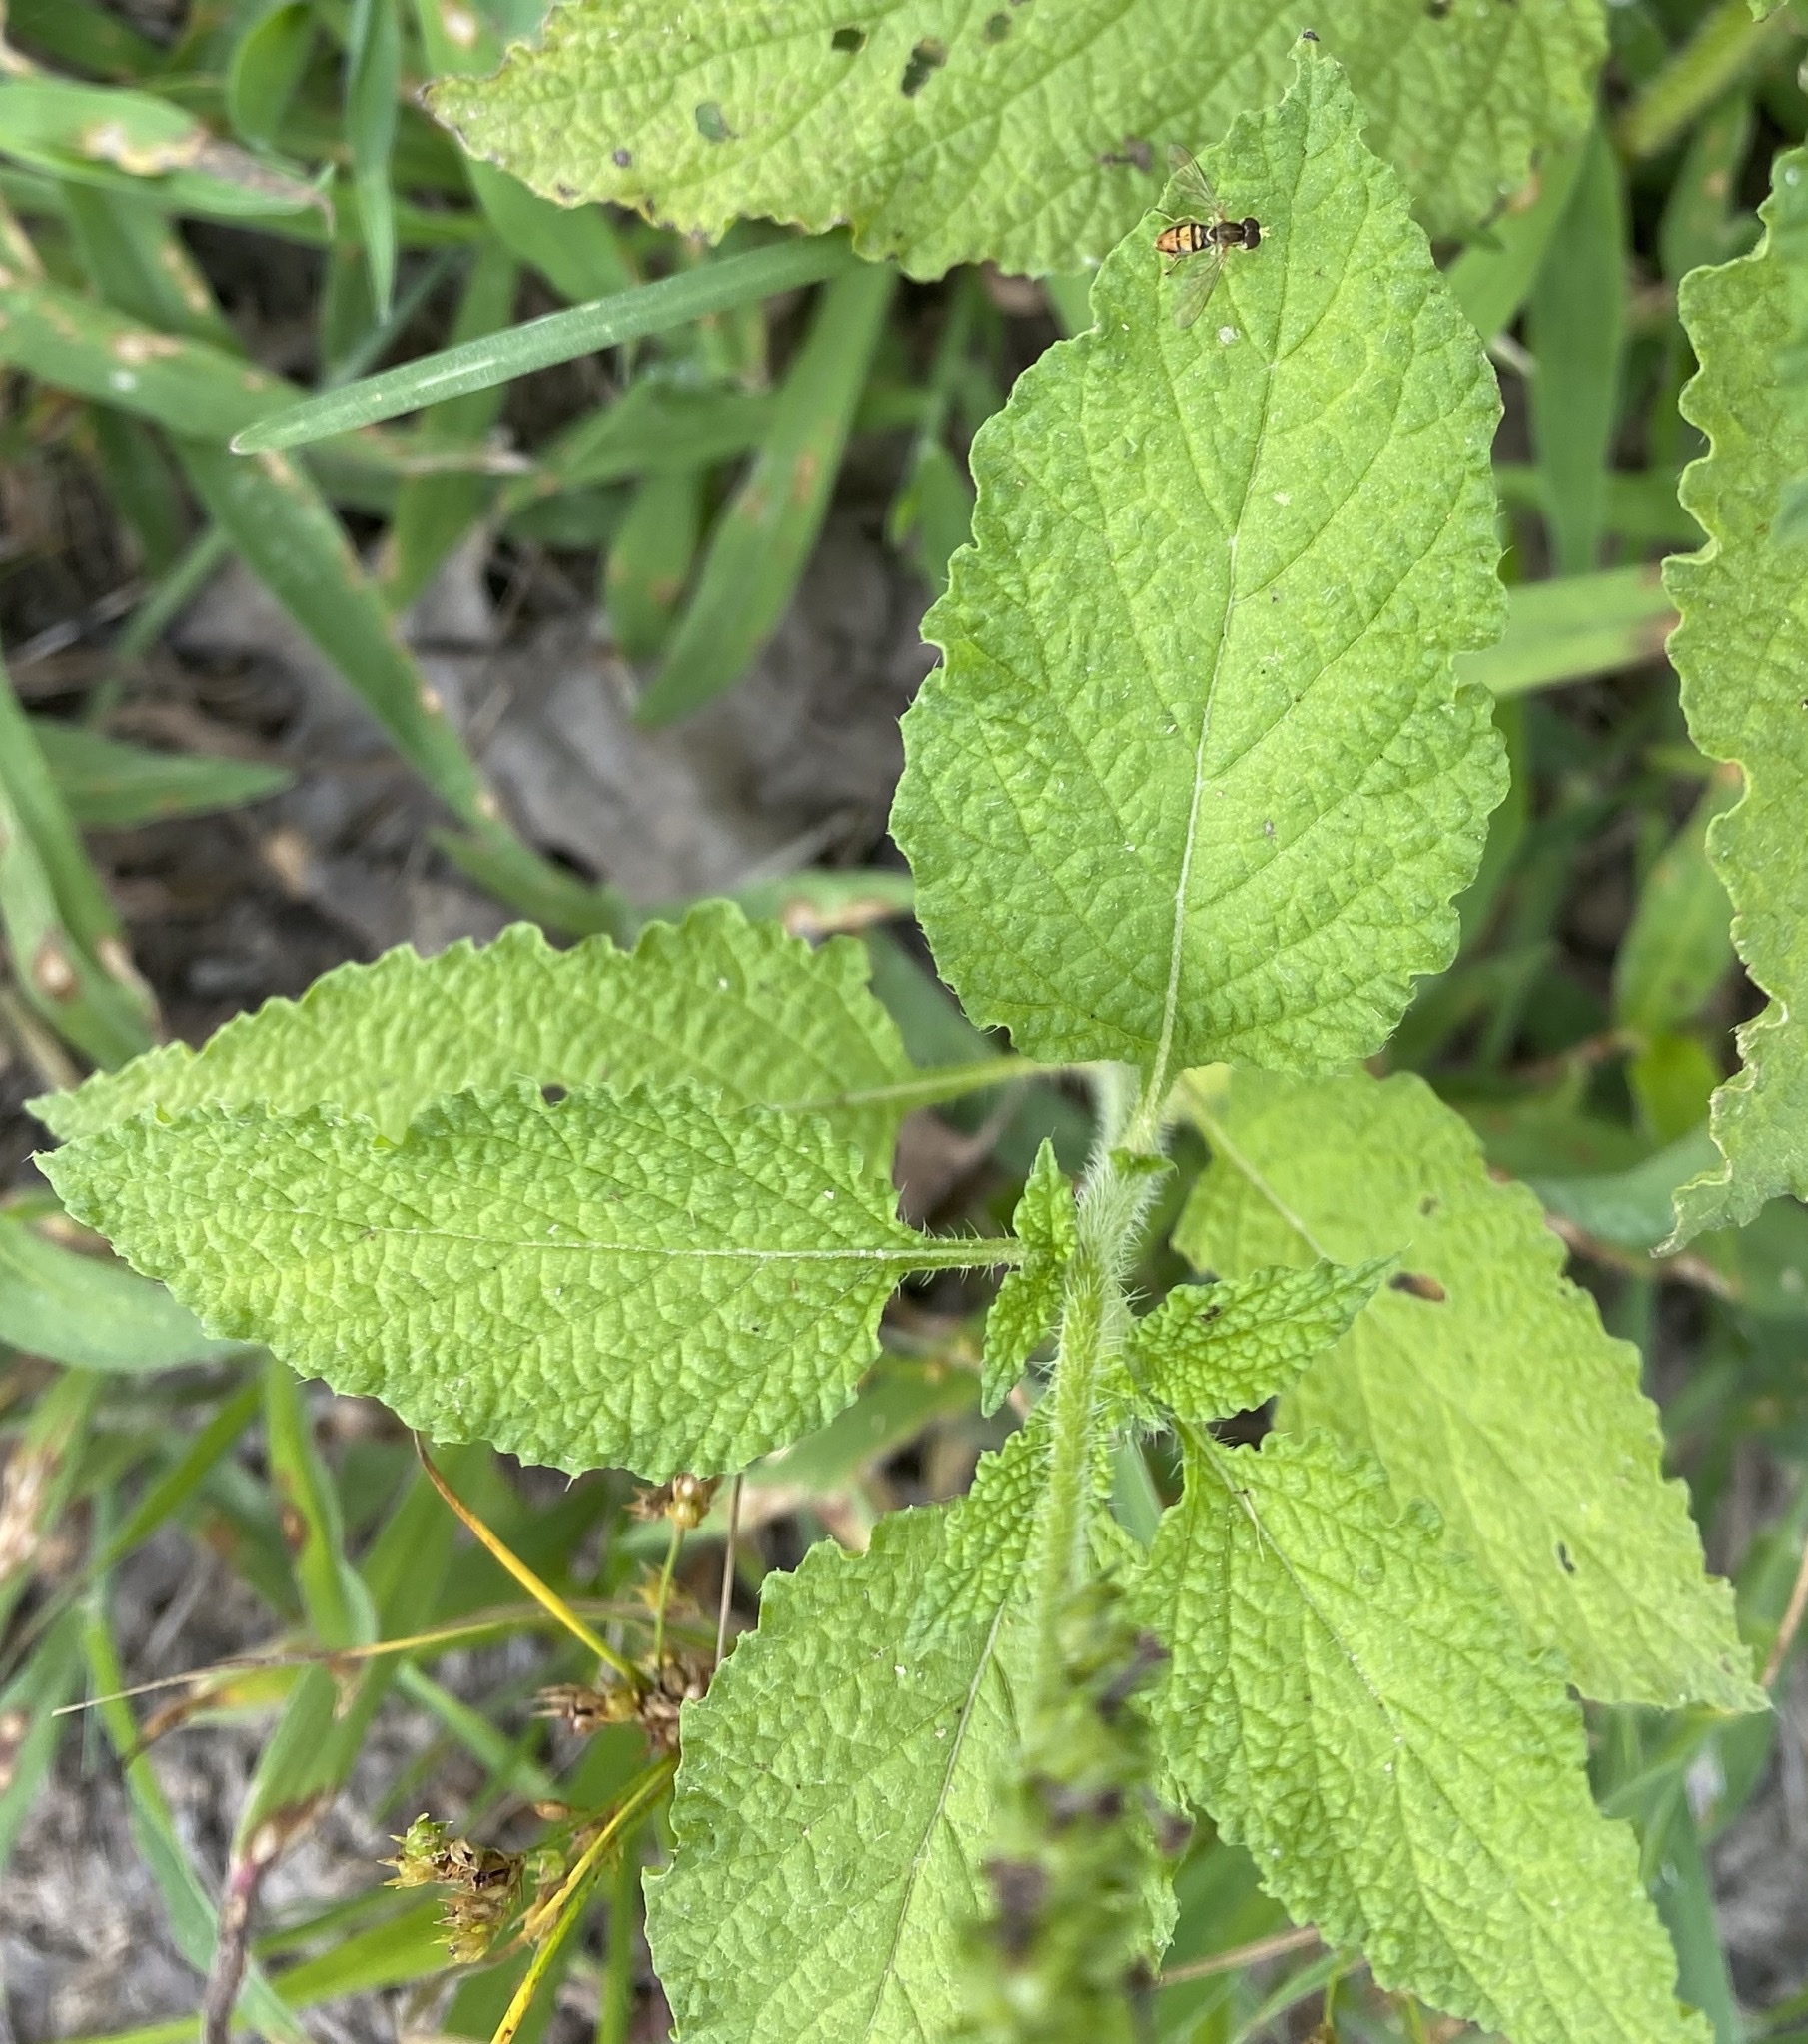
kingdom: Plantae
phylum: Tracheophyta
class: Magnoliopsida
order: Boraginales
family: Heliotropiaceae
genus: Heliotropium
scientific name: Heliotropium indicum
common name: Indian heliotrope
